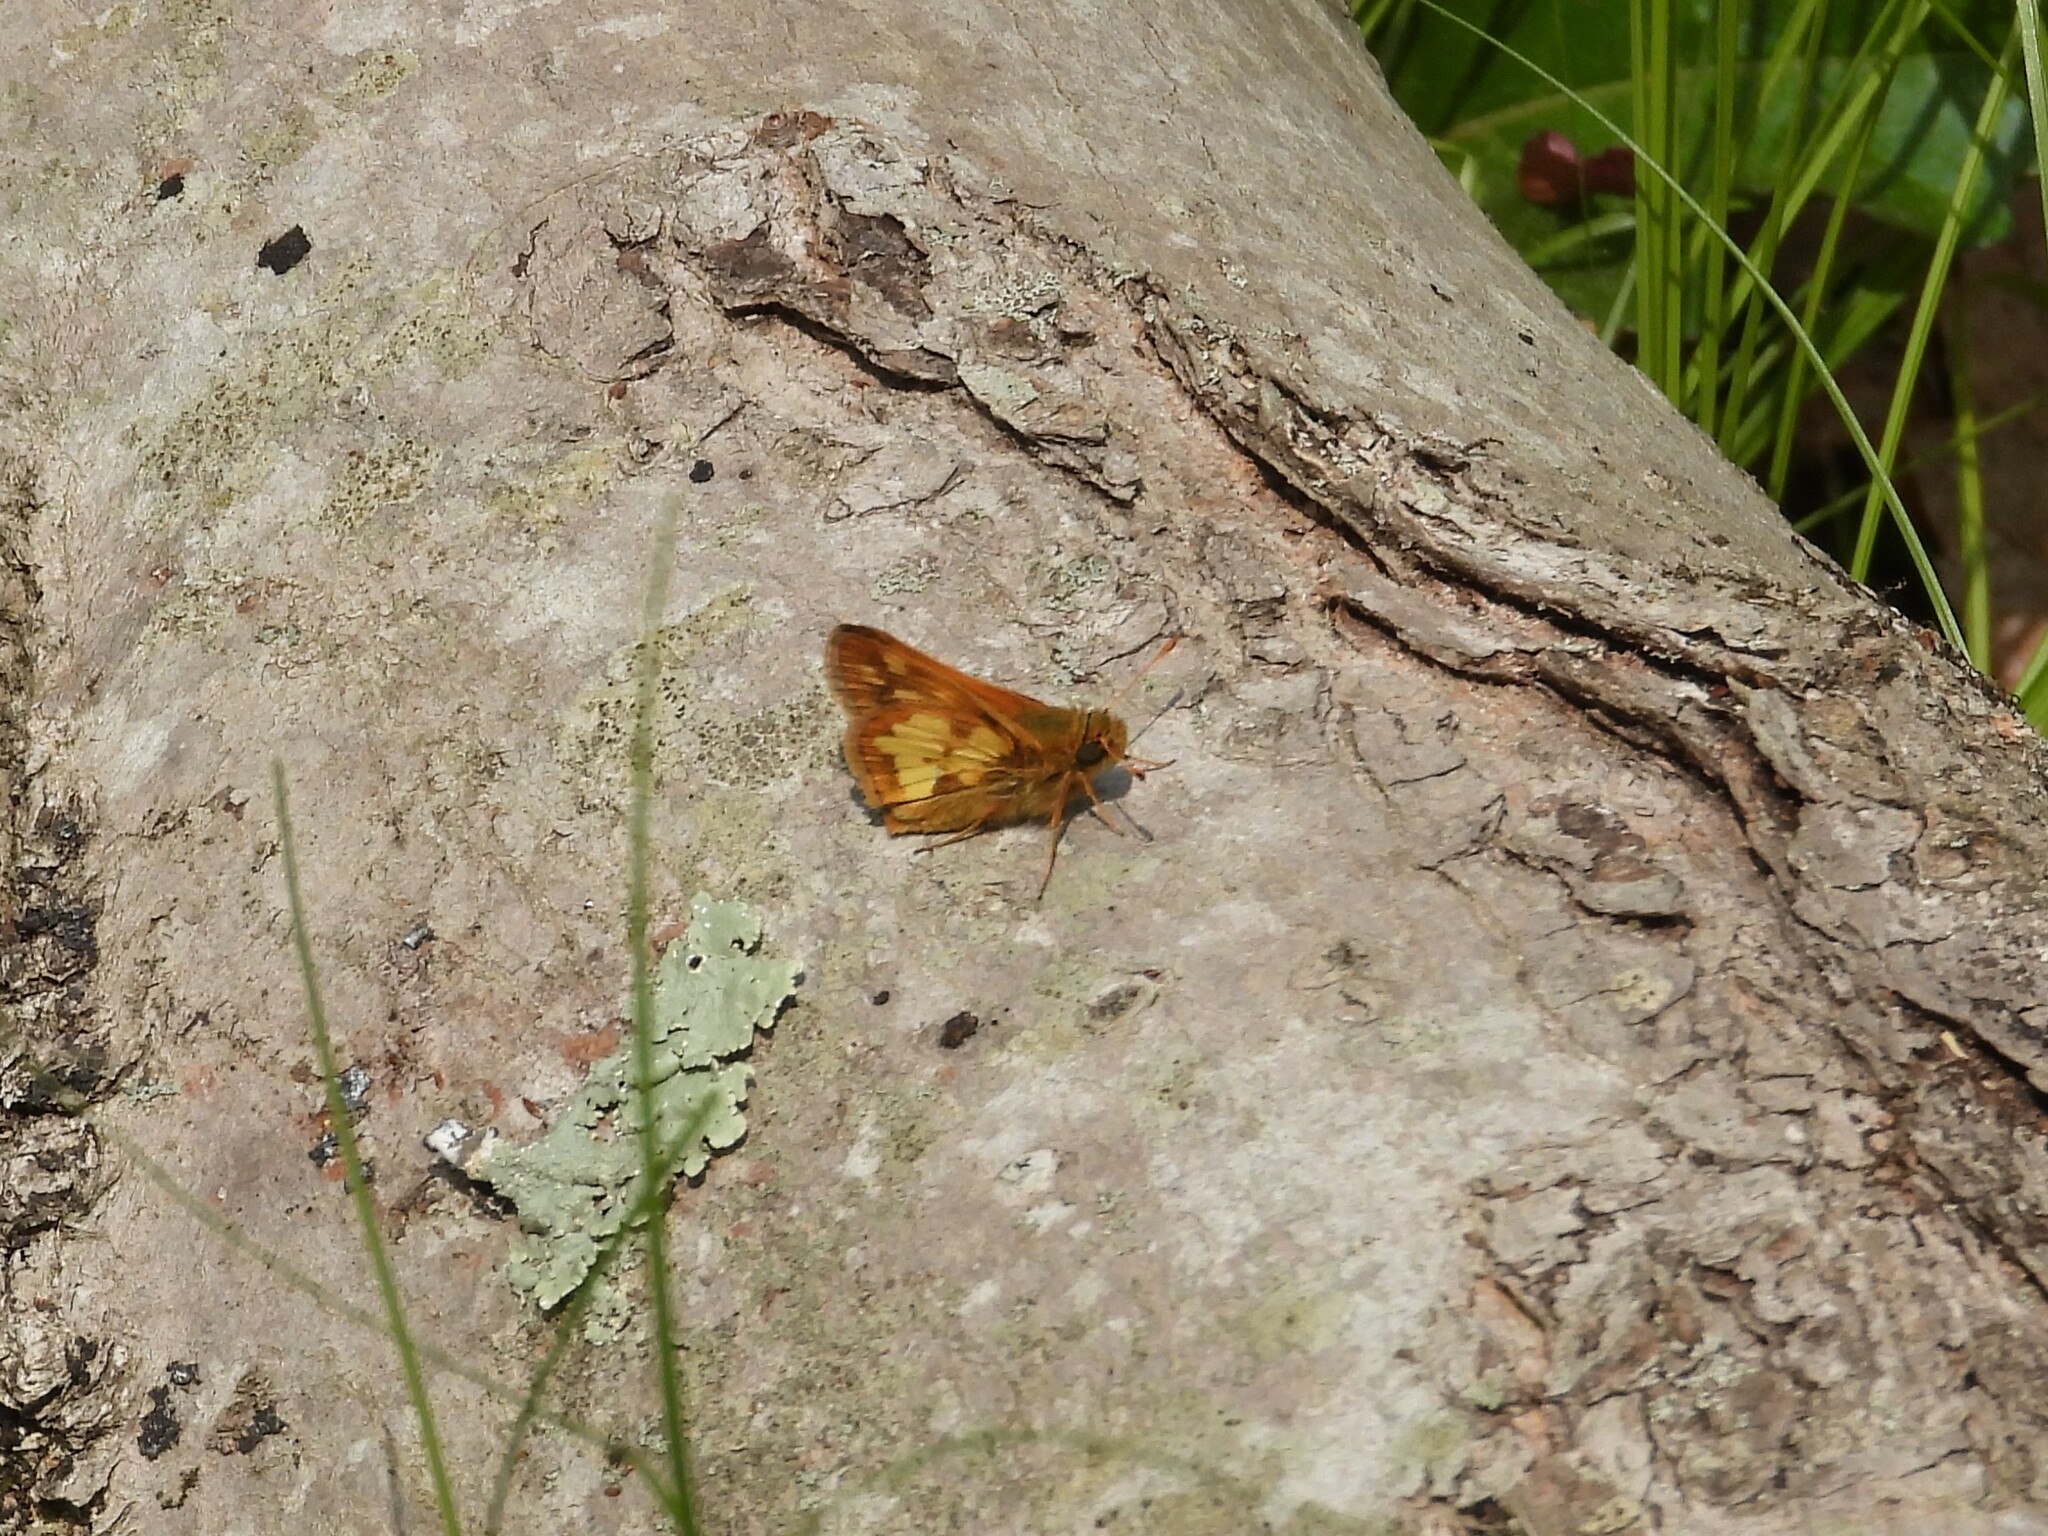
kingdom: Animalia
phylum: Arthropoda
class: Insecta
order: Lepidoptera
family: Hesperiidae
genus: Polites
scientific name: Polites coras
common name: Peck's skipper
